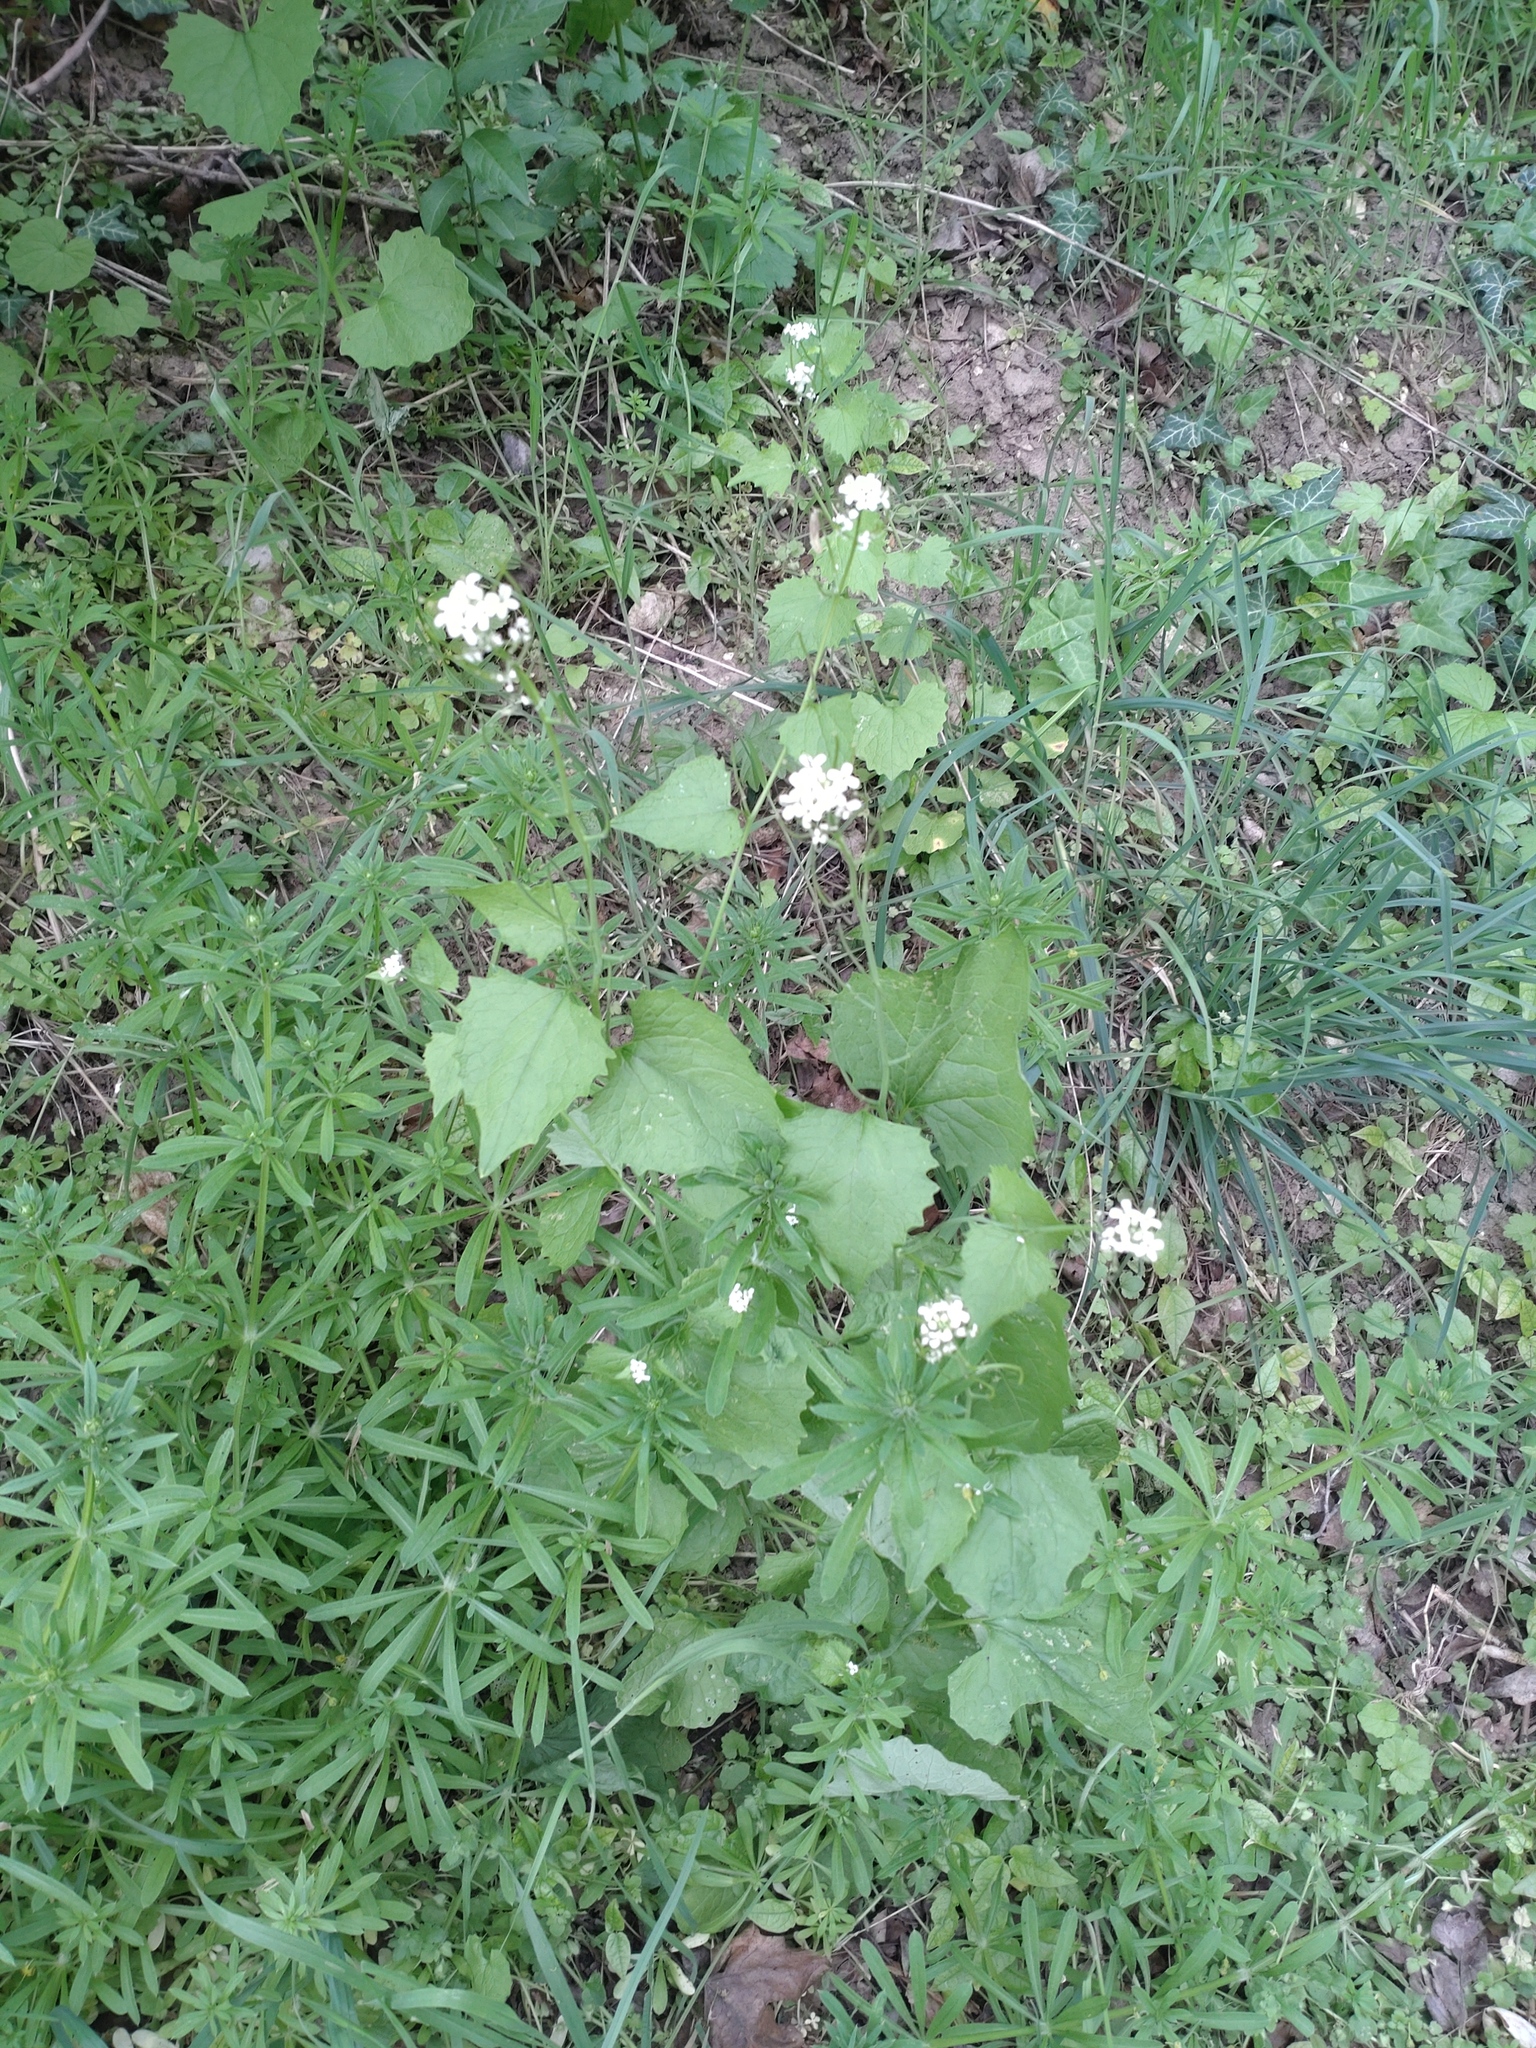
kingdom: Plantae
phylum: Tracheophyta
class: Magnoliopsida
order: Brassicales
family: Brassicaceae
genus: Alliaria
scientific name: Alliaria petiolata
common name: Garlic mustard
